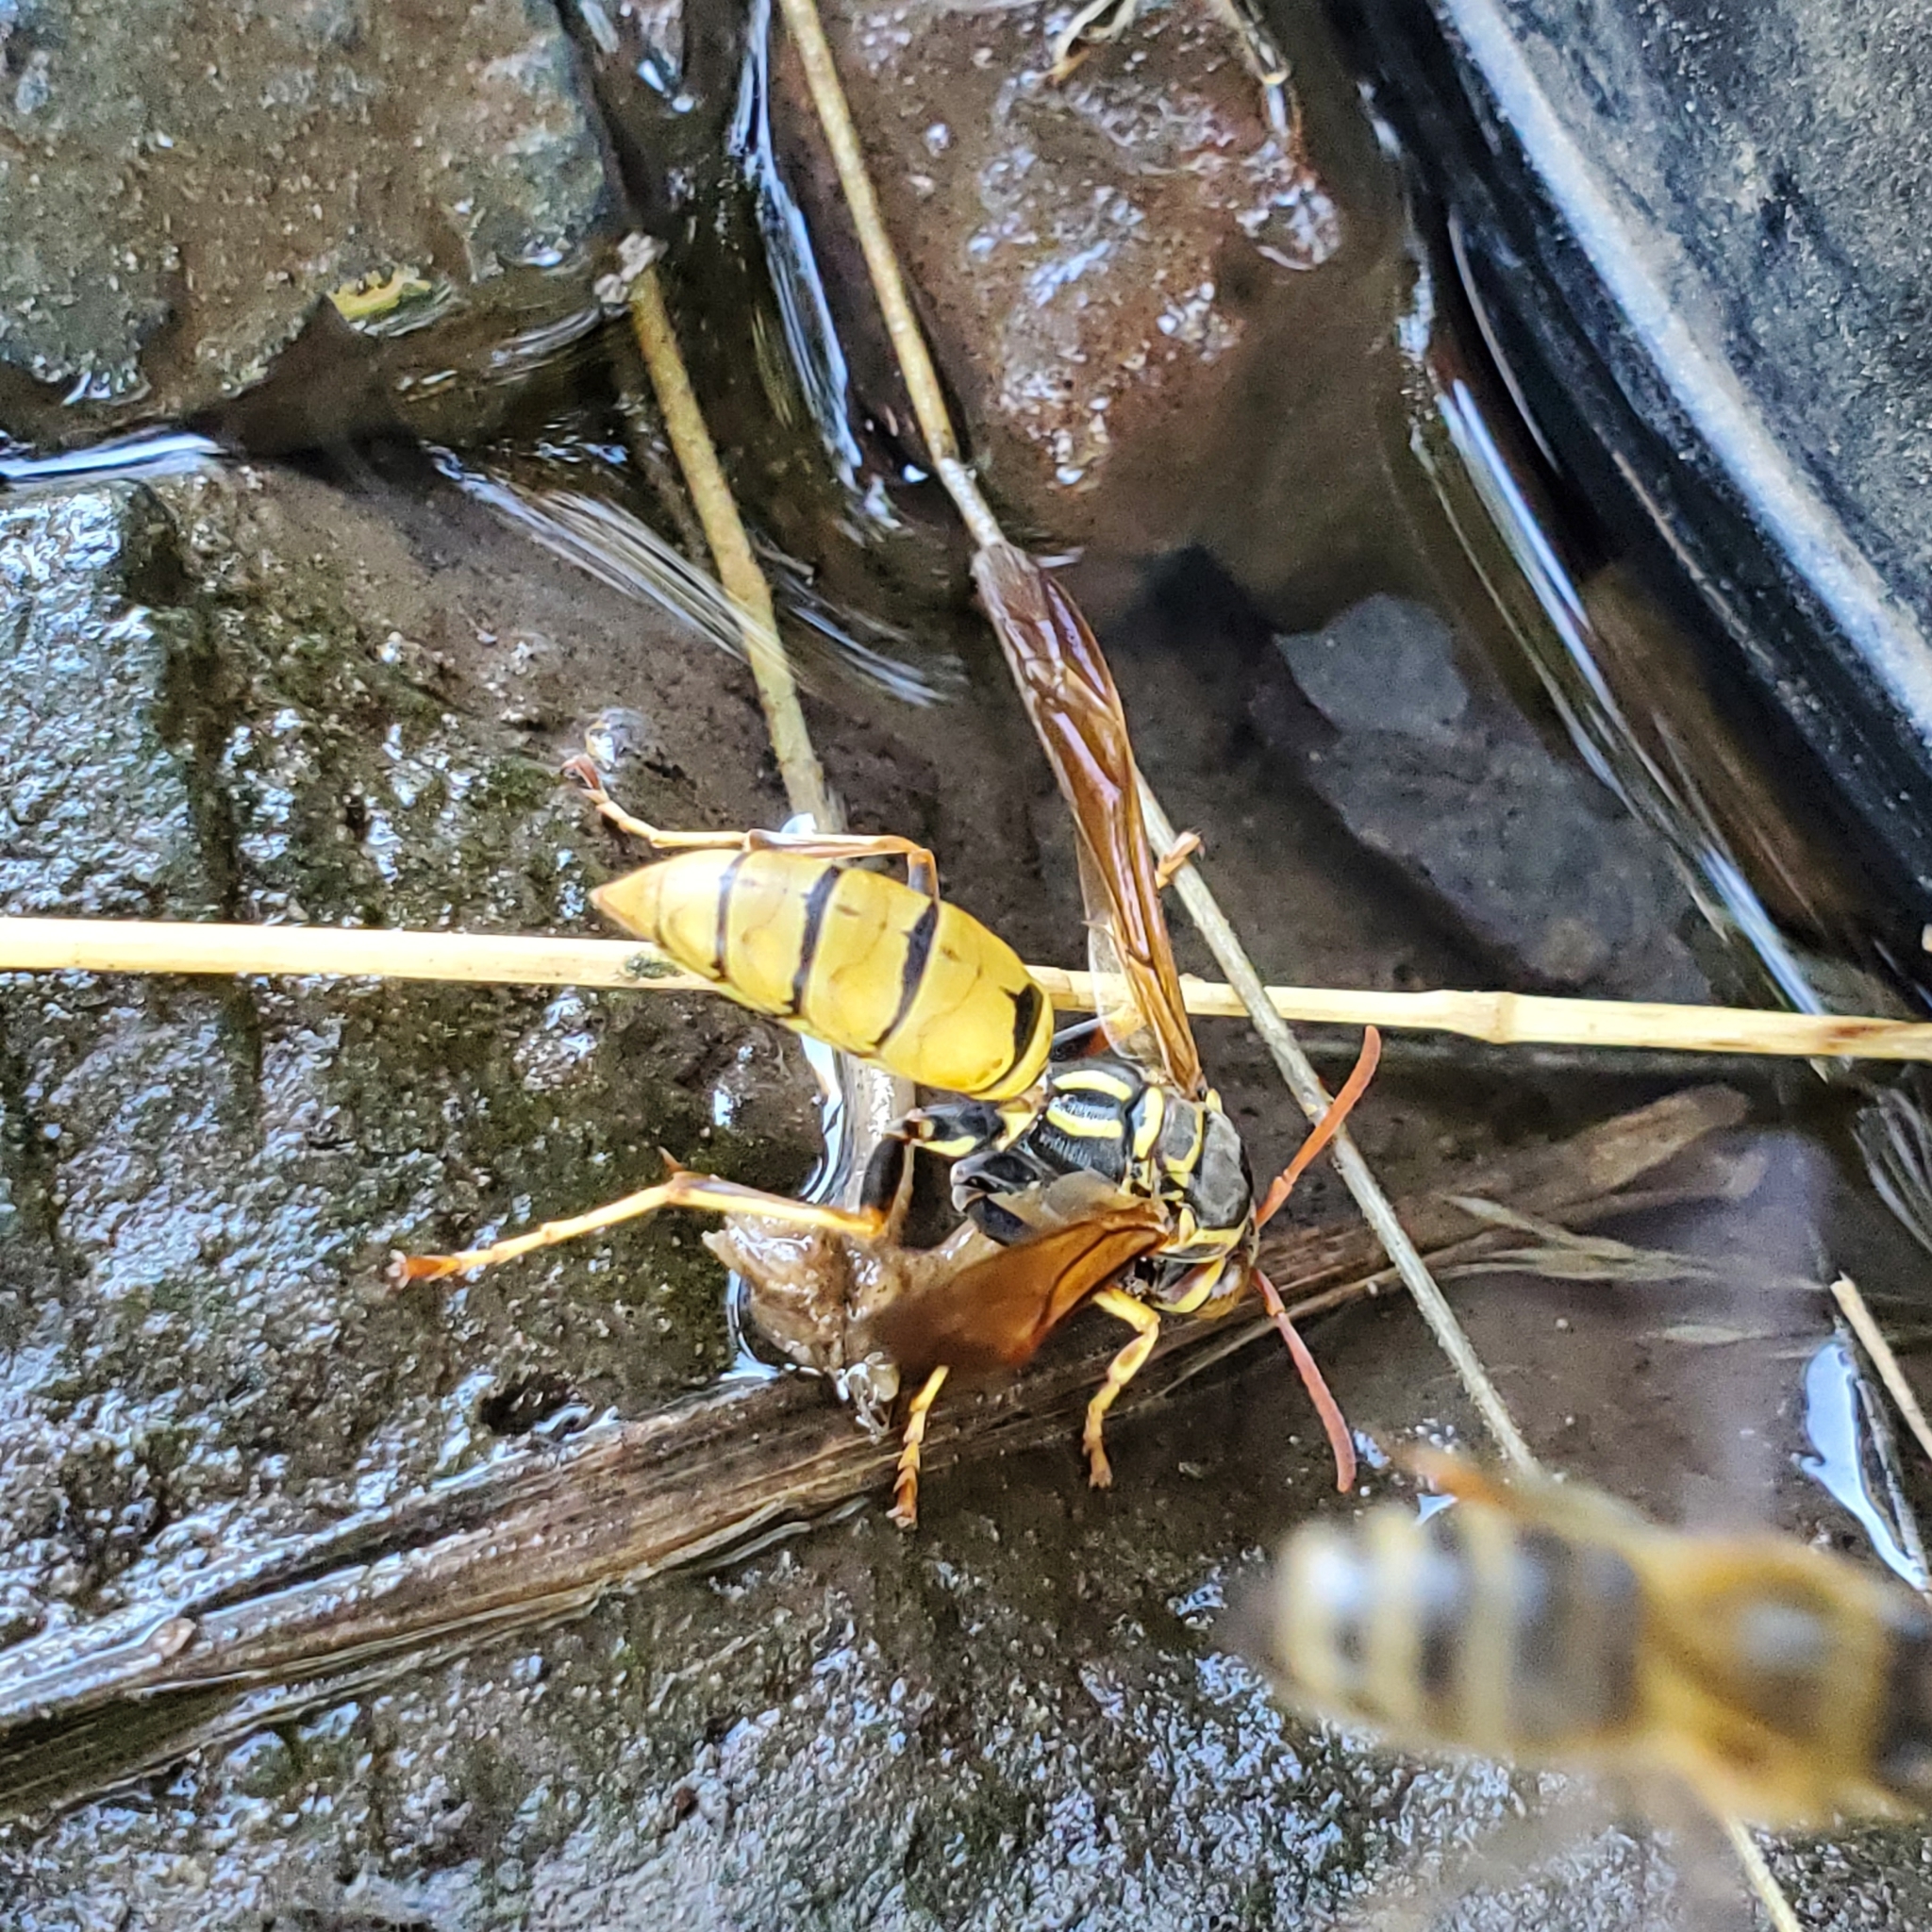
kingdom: Animalia
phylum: Arthropoda
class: Insecta
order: Hymenoptera
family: Eumenidae
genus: Polistes
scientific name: Polistes aurifer
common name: Paper wasp
